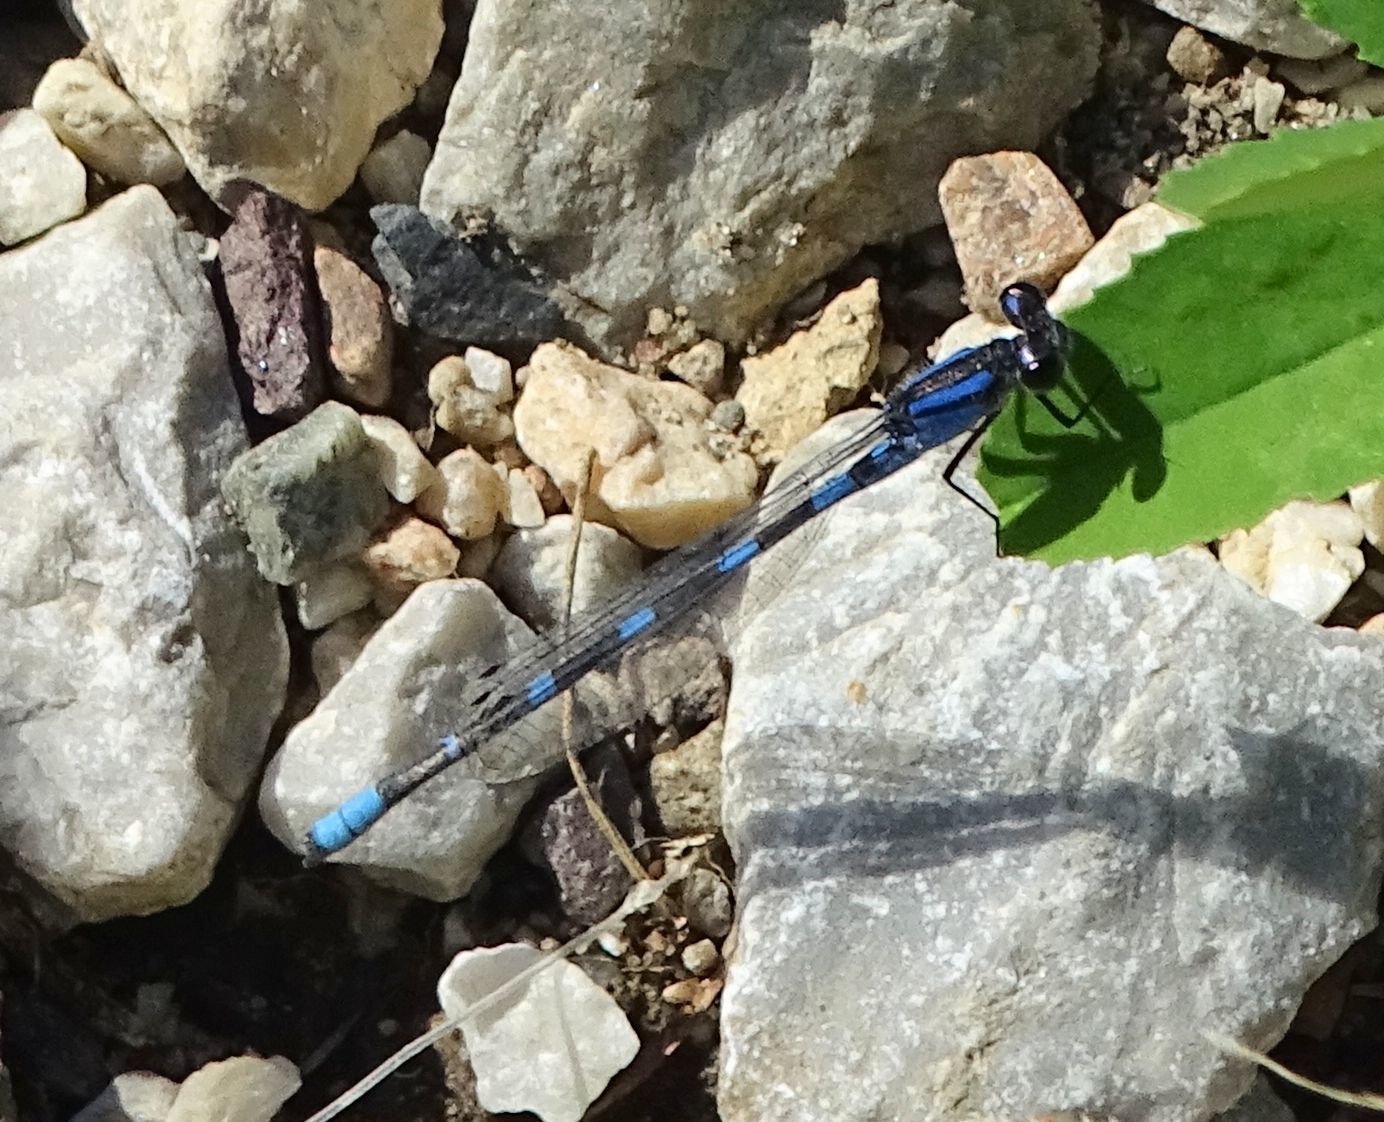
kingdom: Animalia
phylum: Arthropoda
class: Insecta
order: Odonata
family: Coenagrionidae
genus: Enallagma
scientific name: Enallagma carunculatum
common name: Tule bluet
